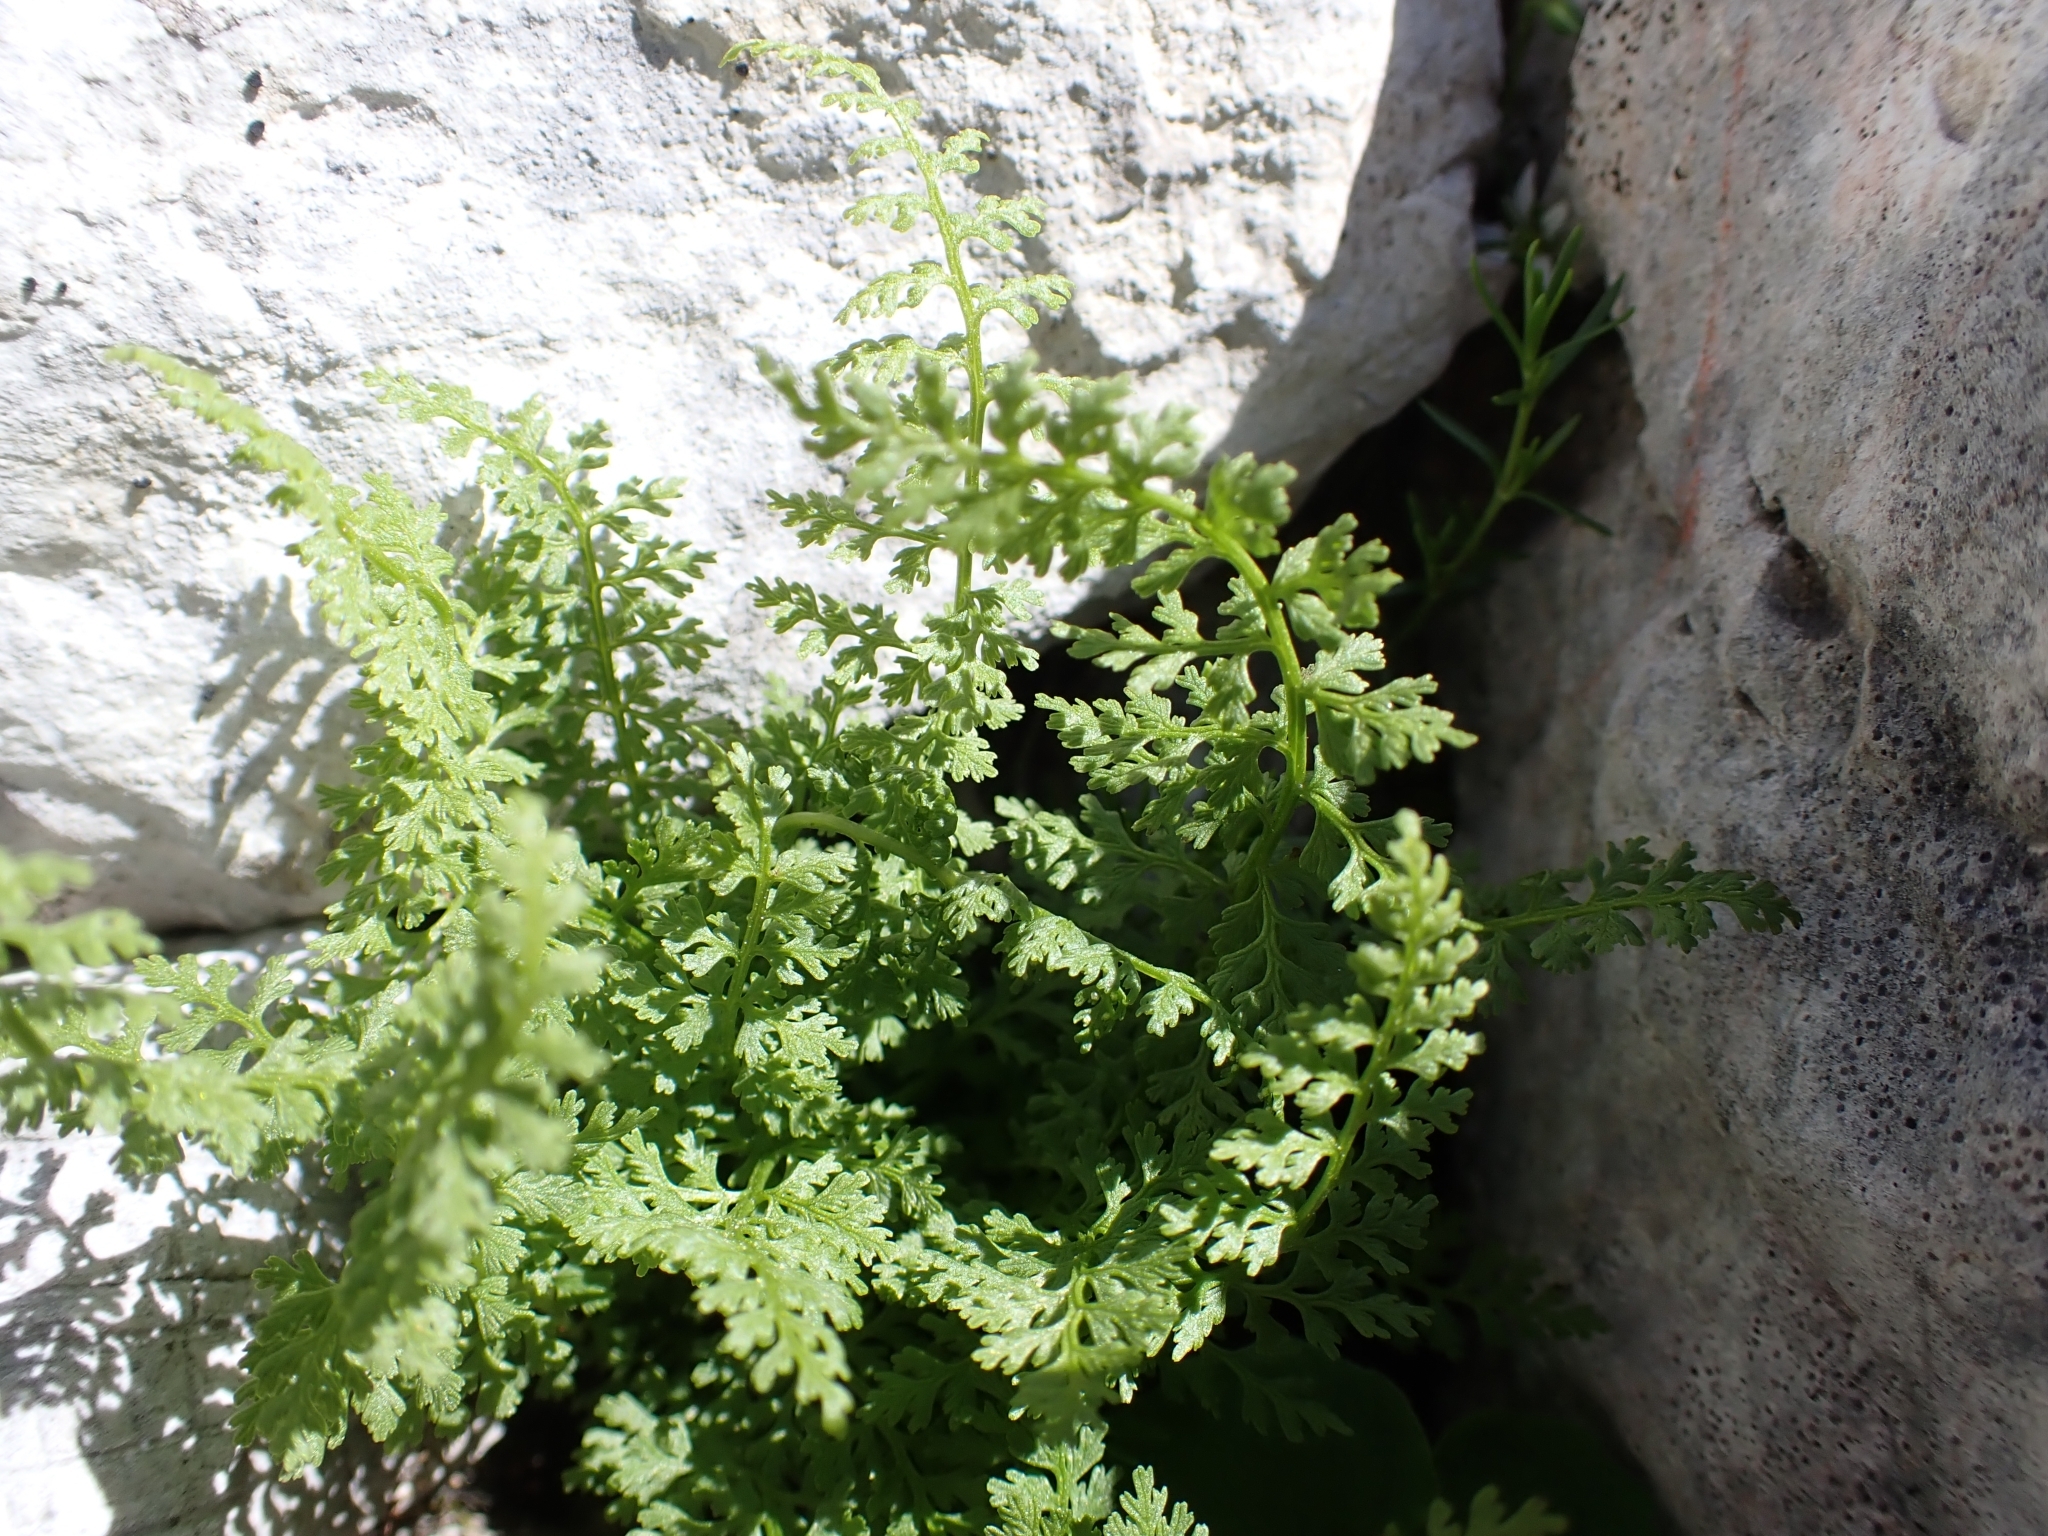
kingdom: Plantae
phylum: Tracheophyta
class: Polypodiopsida
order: Polypodiales
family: Cystopteridaceae
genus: Cystopteris
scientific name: Cystopteris alpina
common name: Alpine bladder-fern
